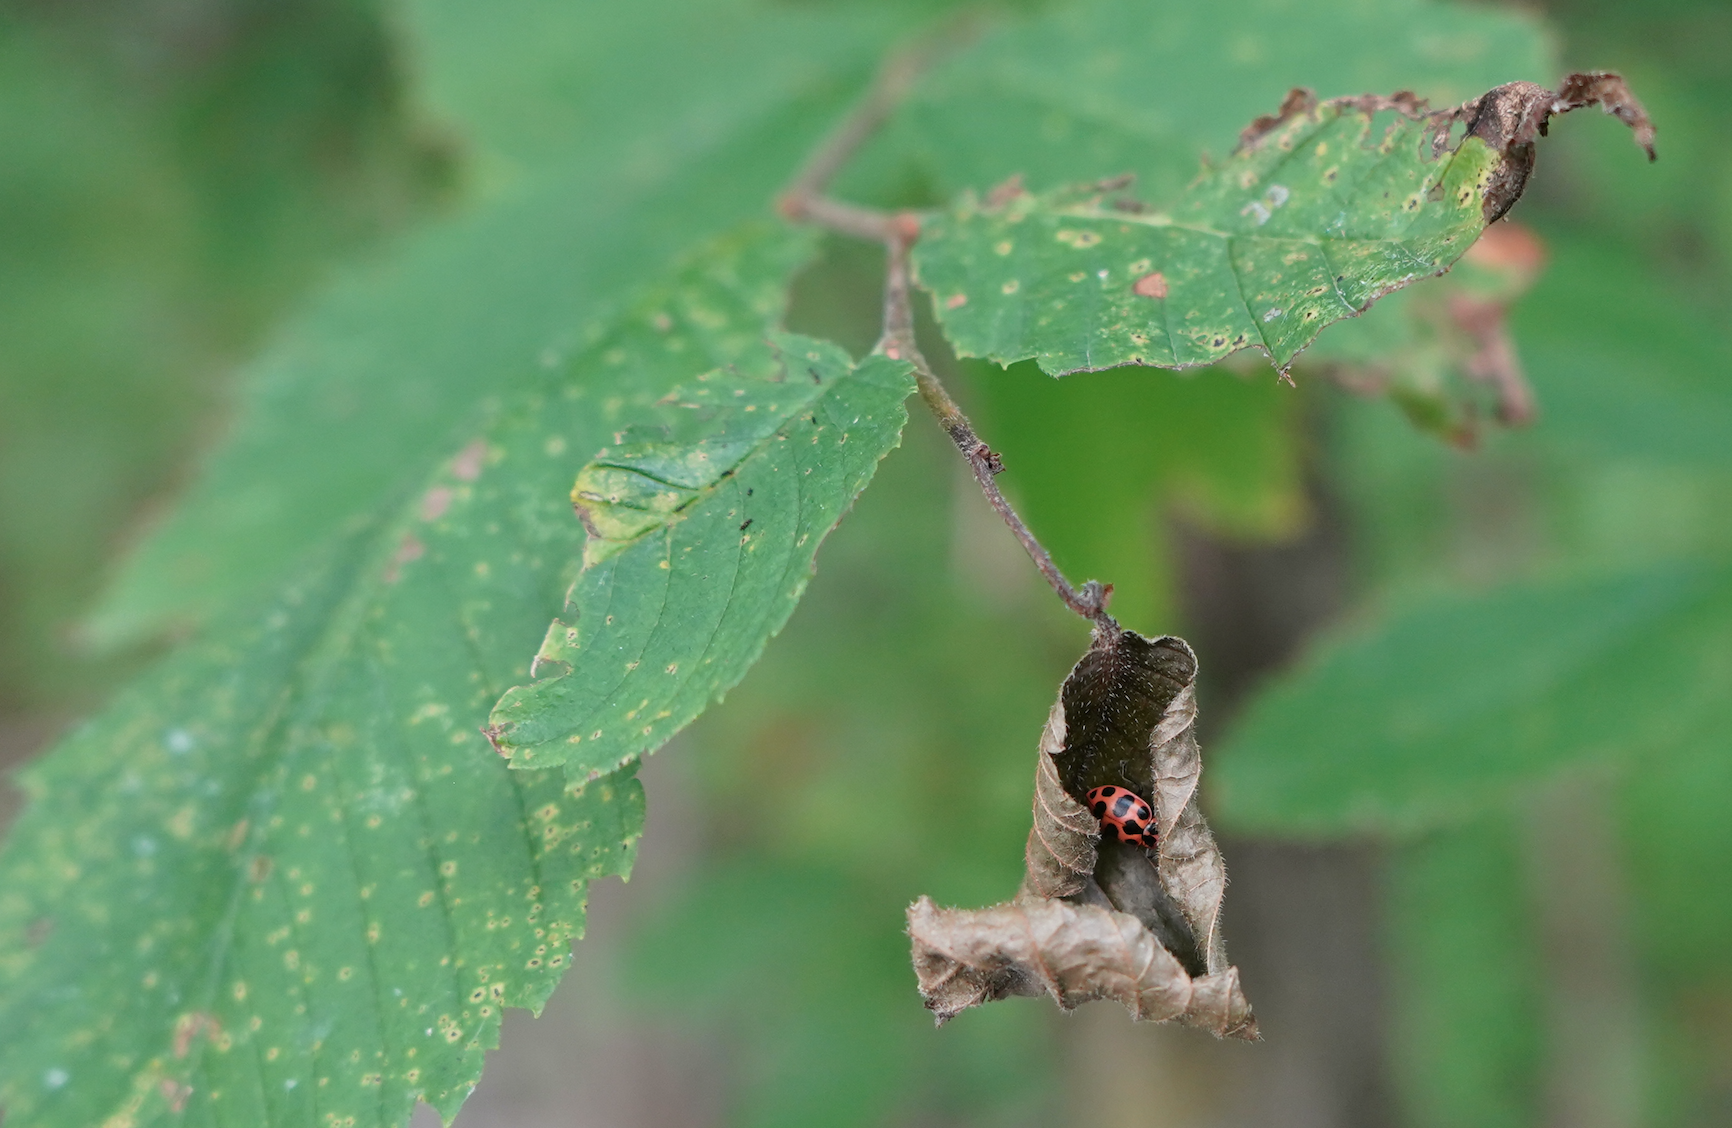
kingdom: Animalia
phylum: Arthropoda
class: Insecta
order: Coleoptera
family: Coccinellidae
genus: Coleomegilla
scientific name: Coleomegilla maculata
